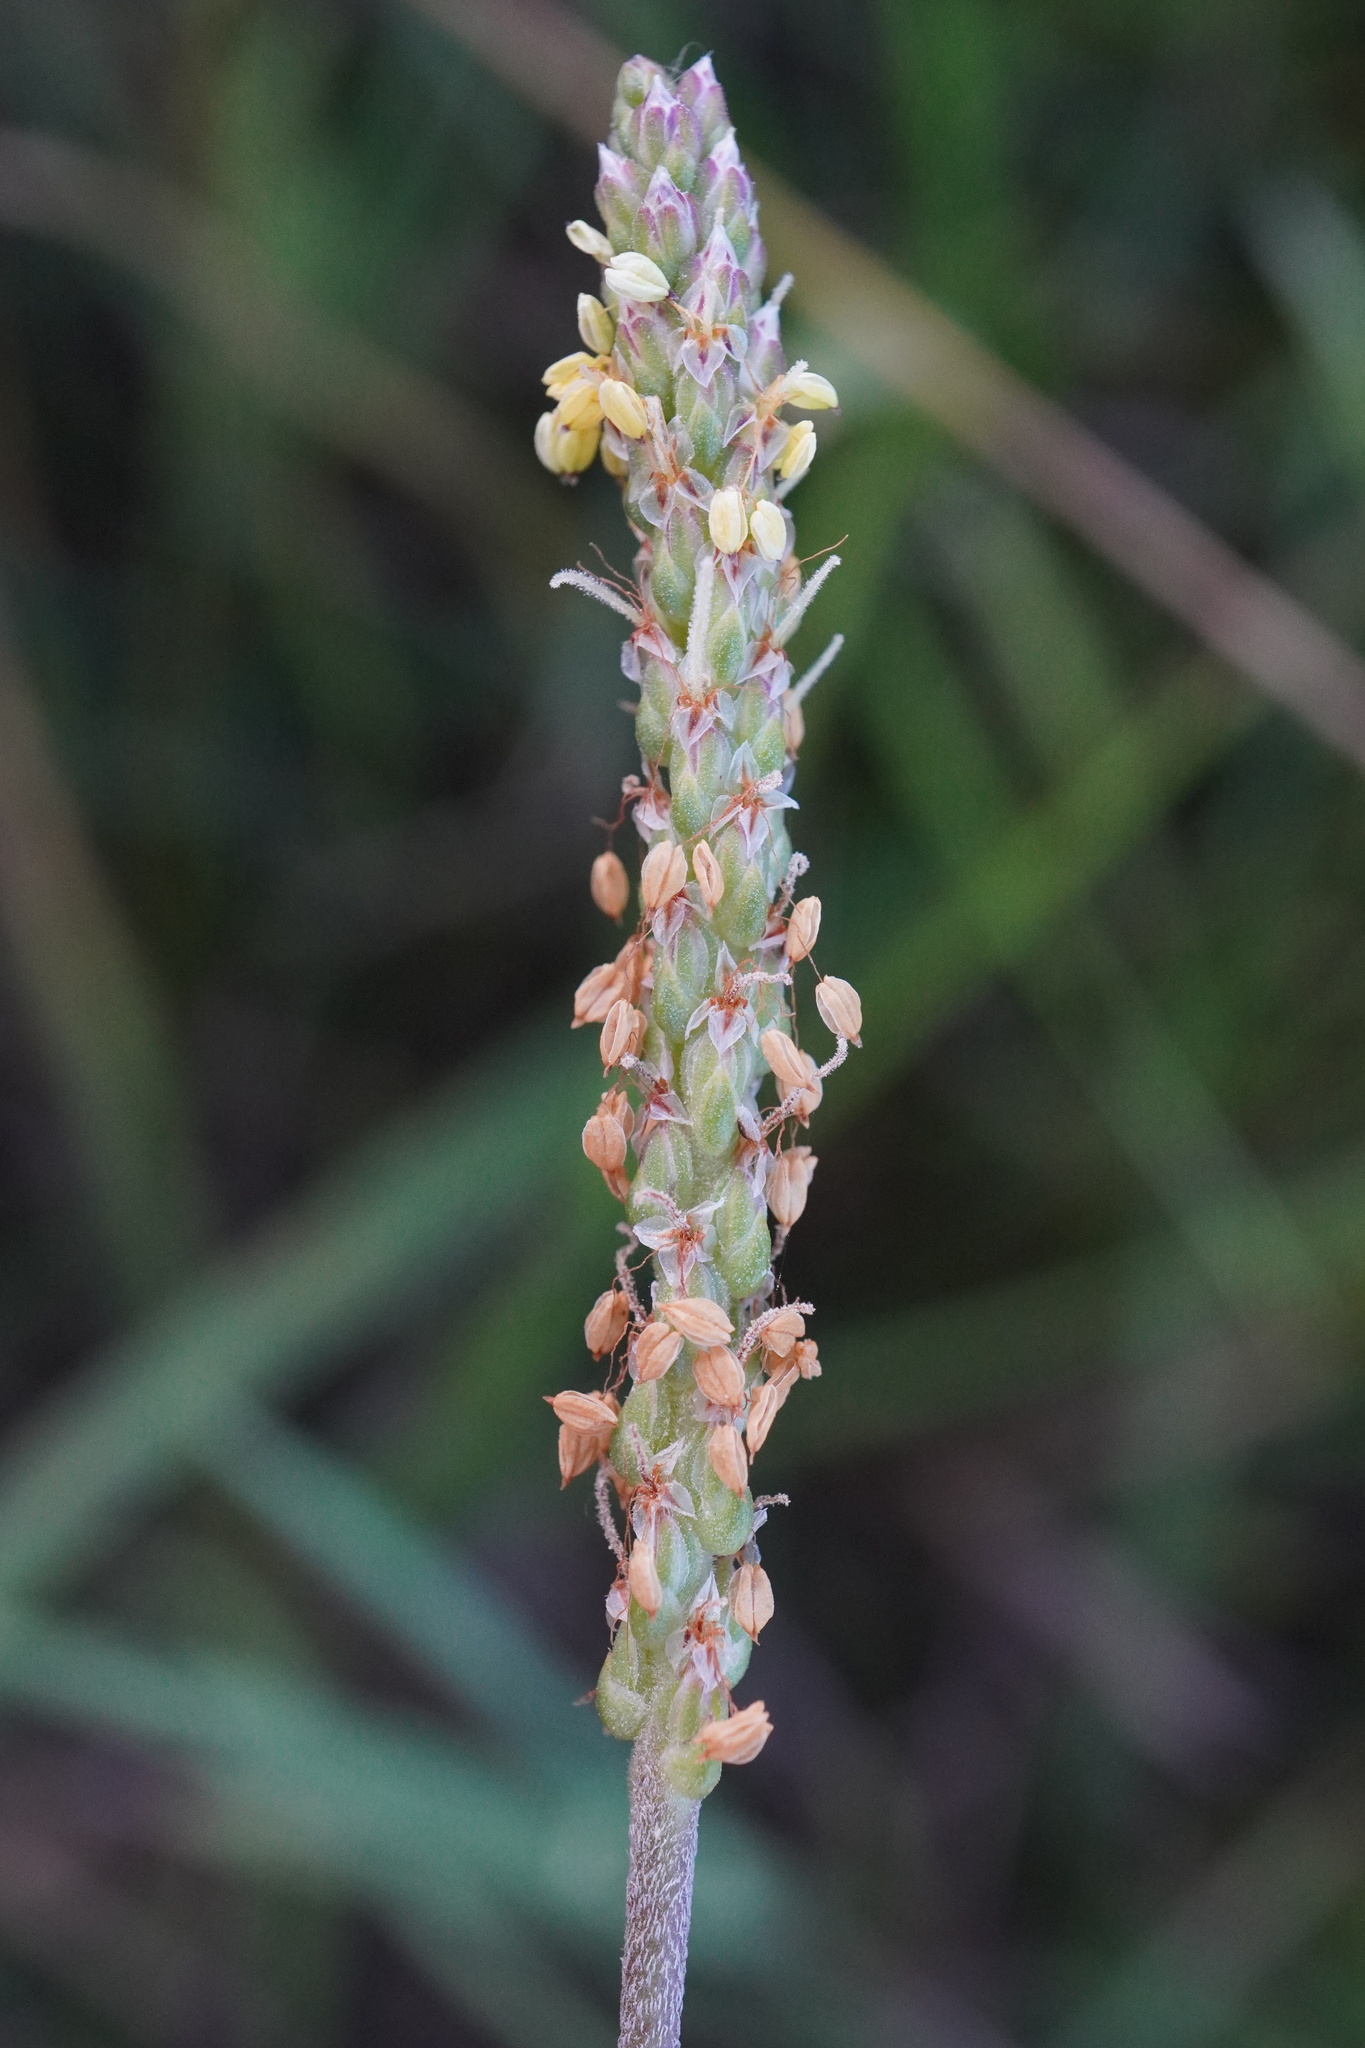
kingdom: Plantae
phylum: Tracheophyta
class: Magnoliopsida
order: Lamiales
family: Plantaginaceae
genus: Plantago
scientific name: Plantago maritima
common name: Sea plantain
